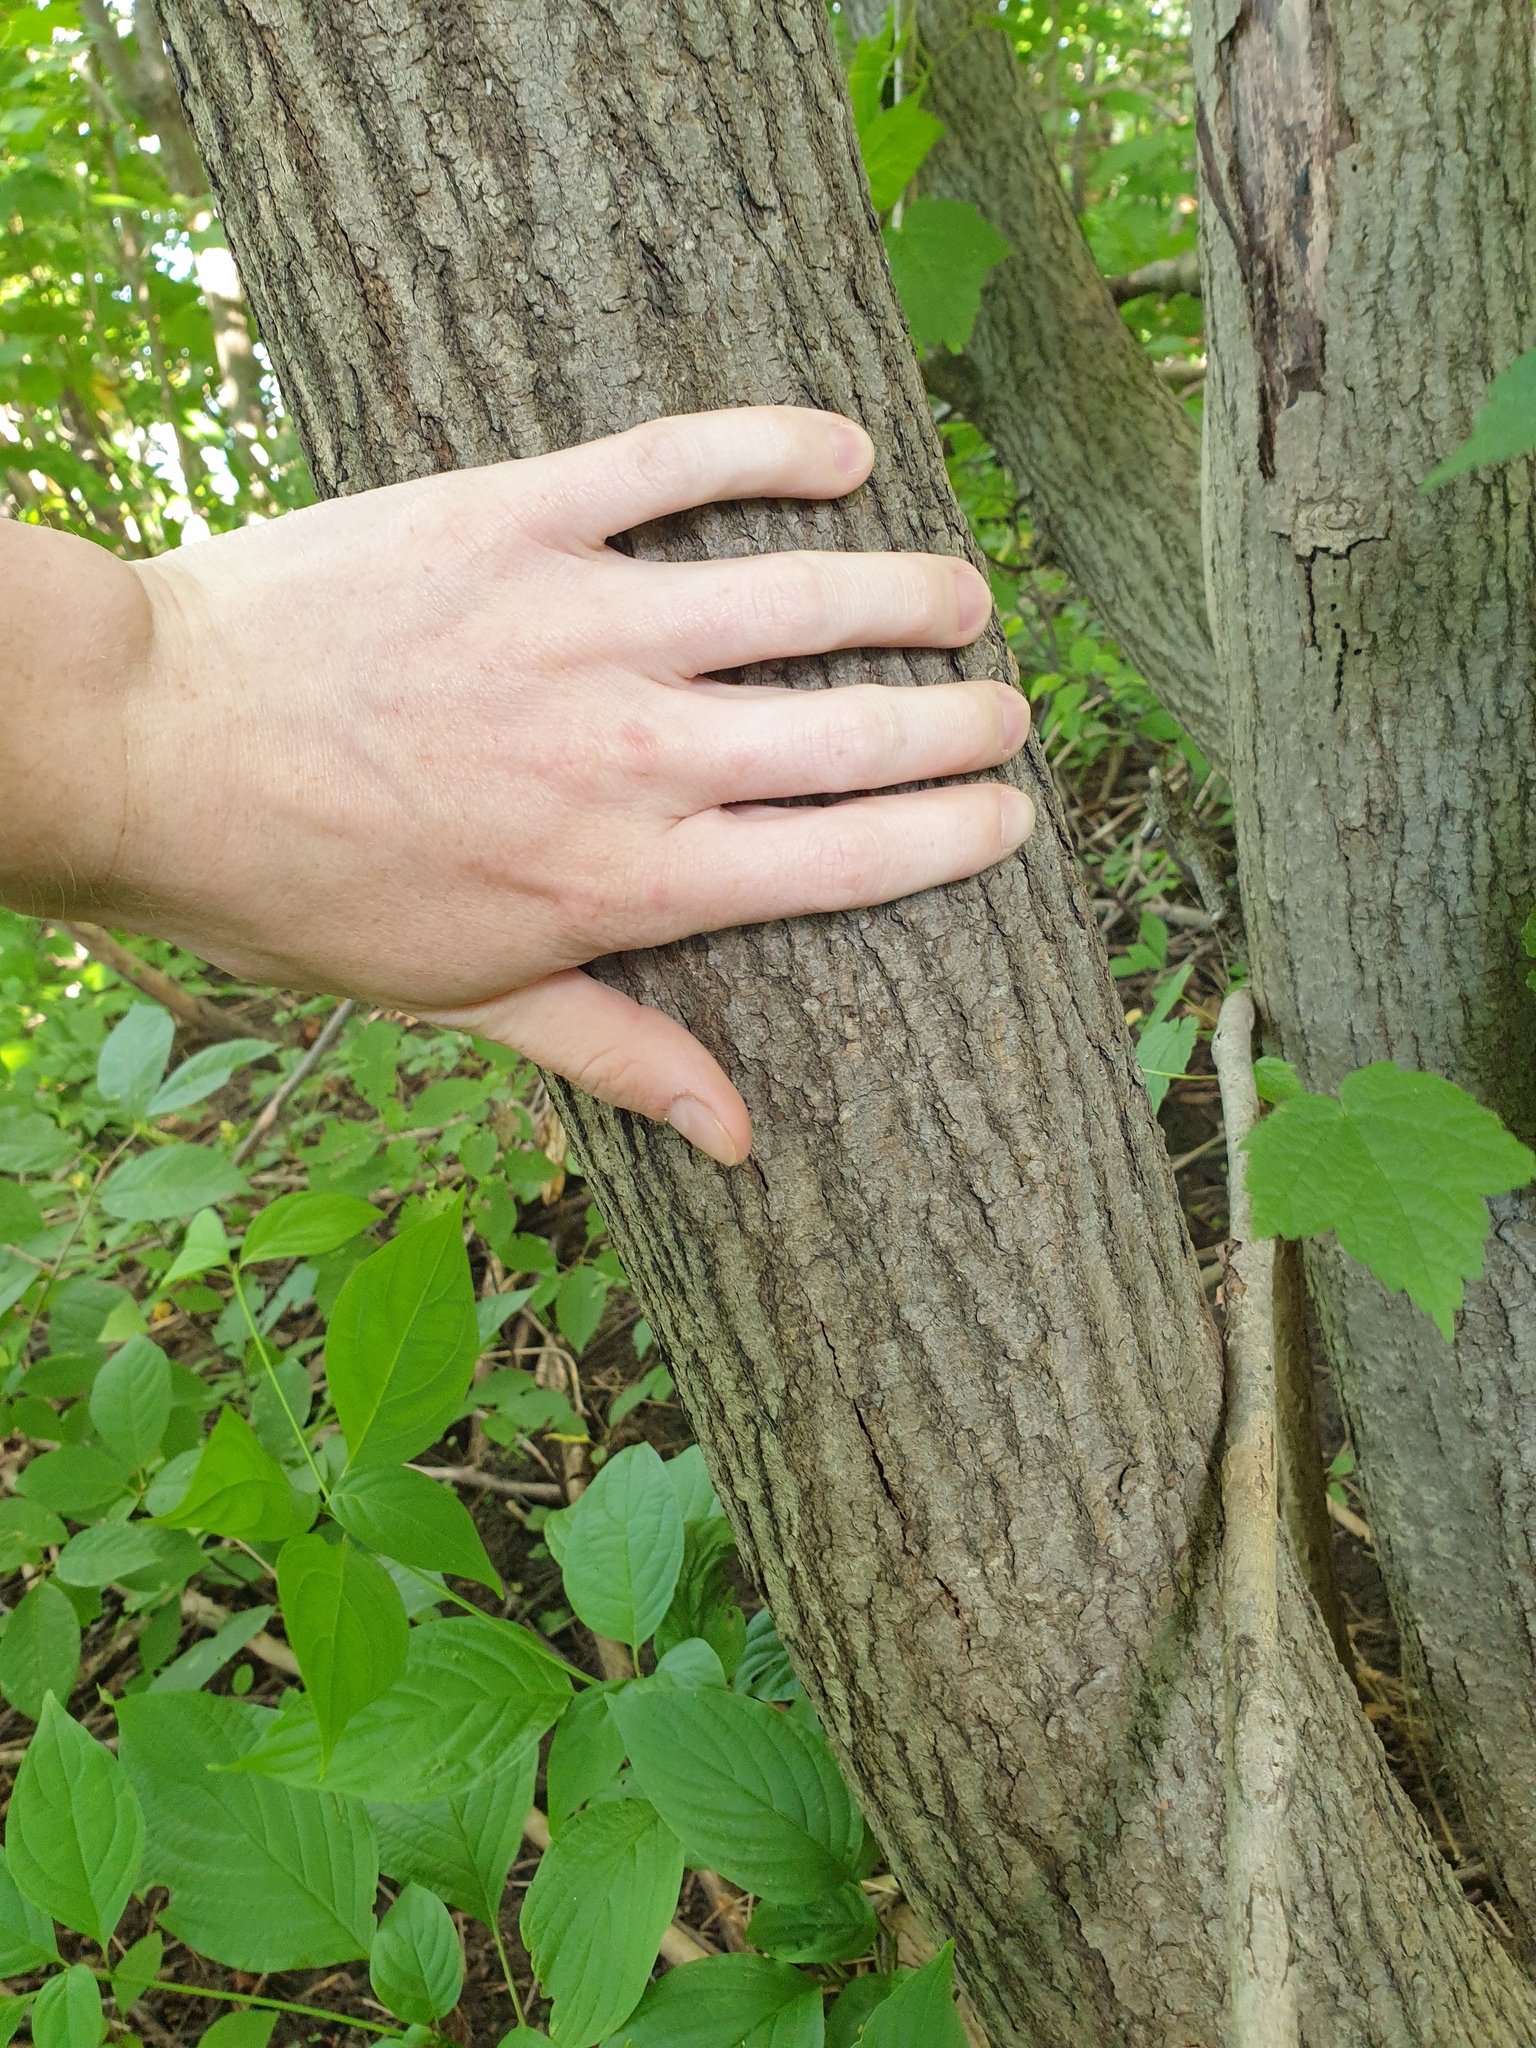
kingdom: Plantae
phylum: Tracheophyta
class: Magnoliopsida
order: Sapindales
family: Sapindaceae
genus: Acer
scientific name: Acer spicatum
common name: Mountain maple
